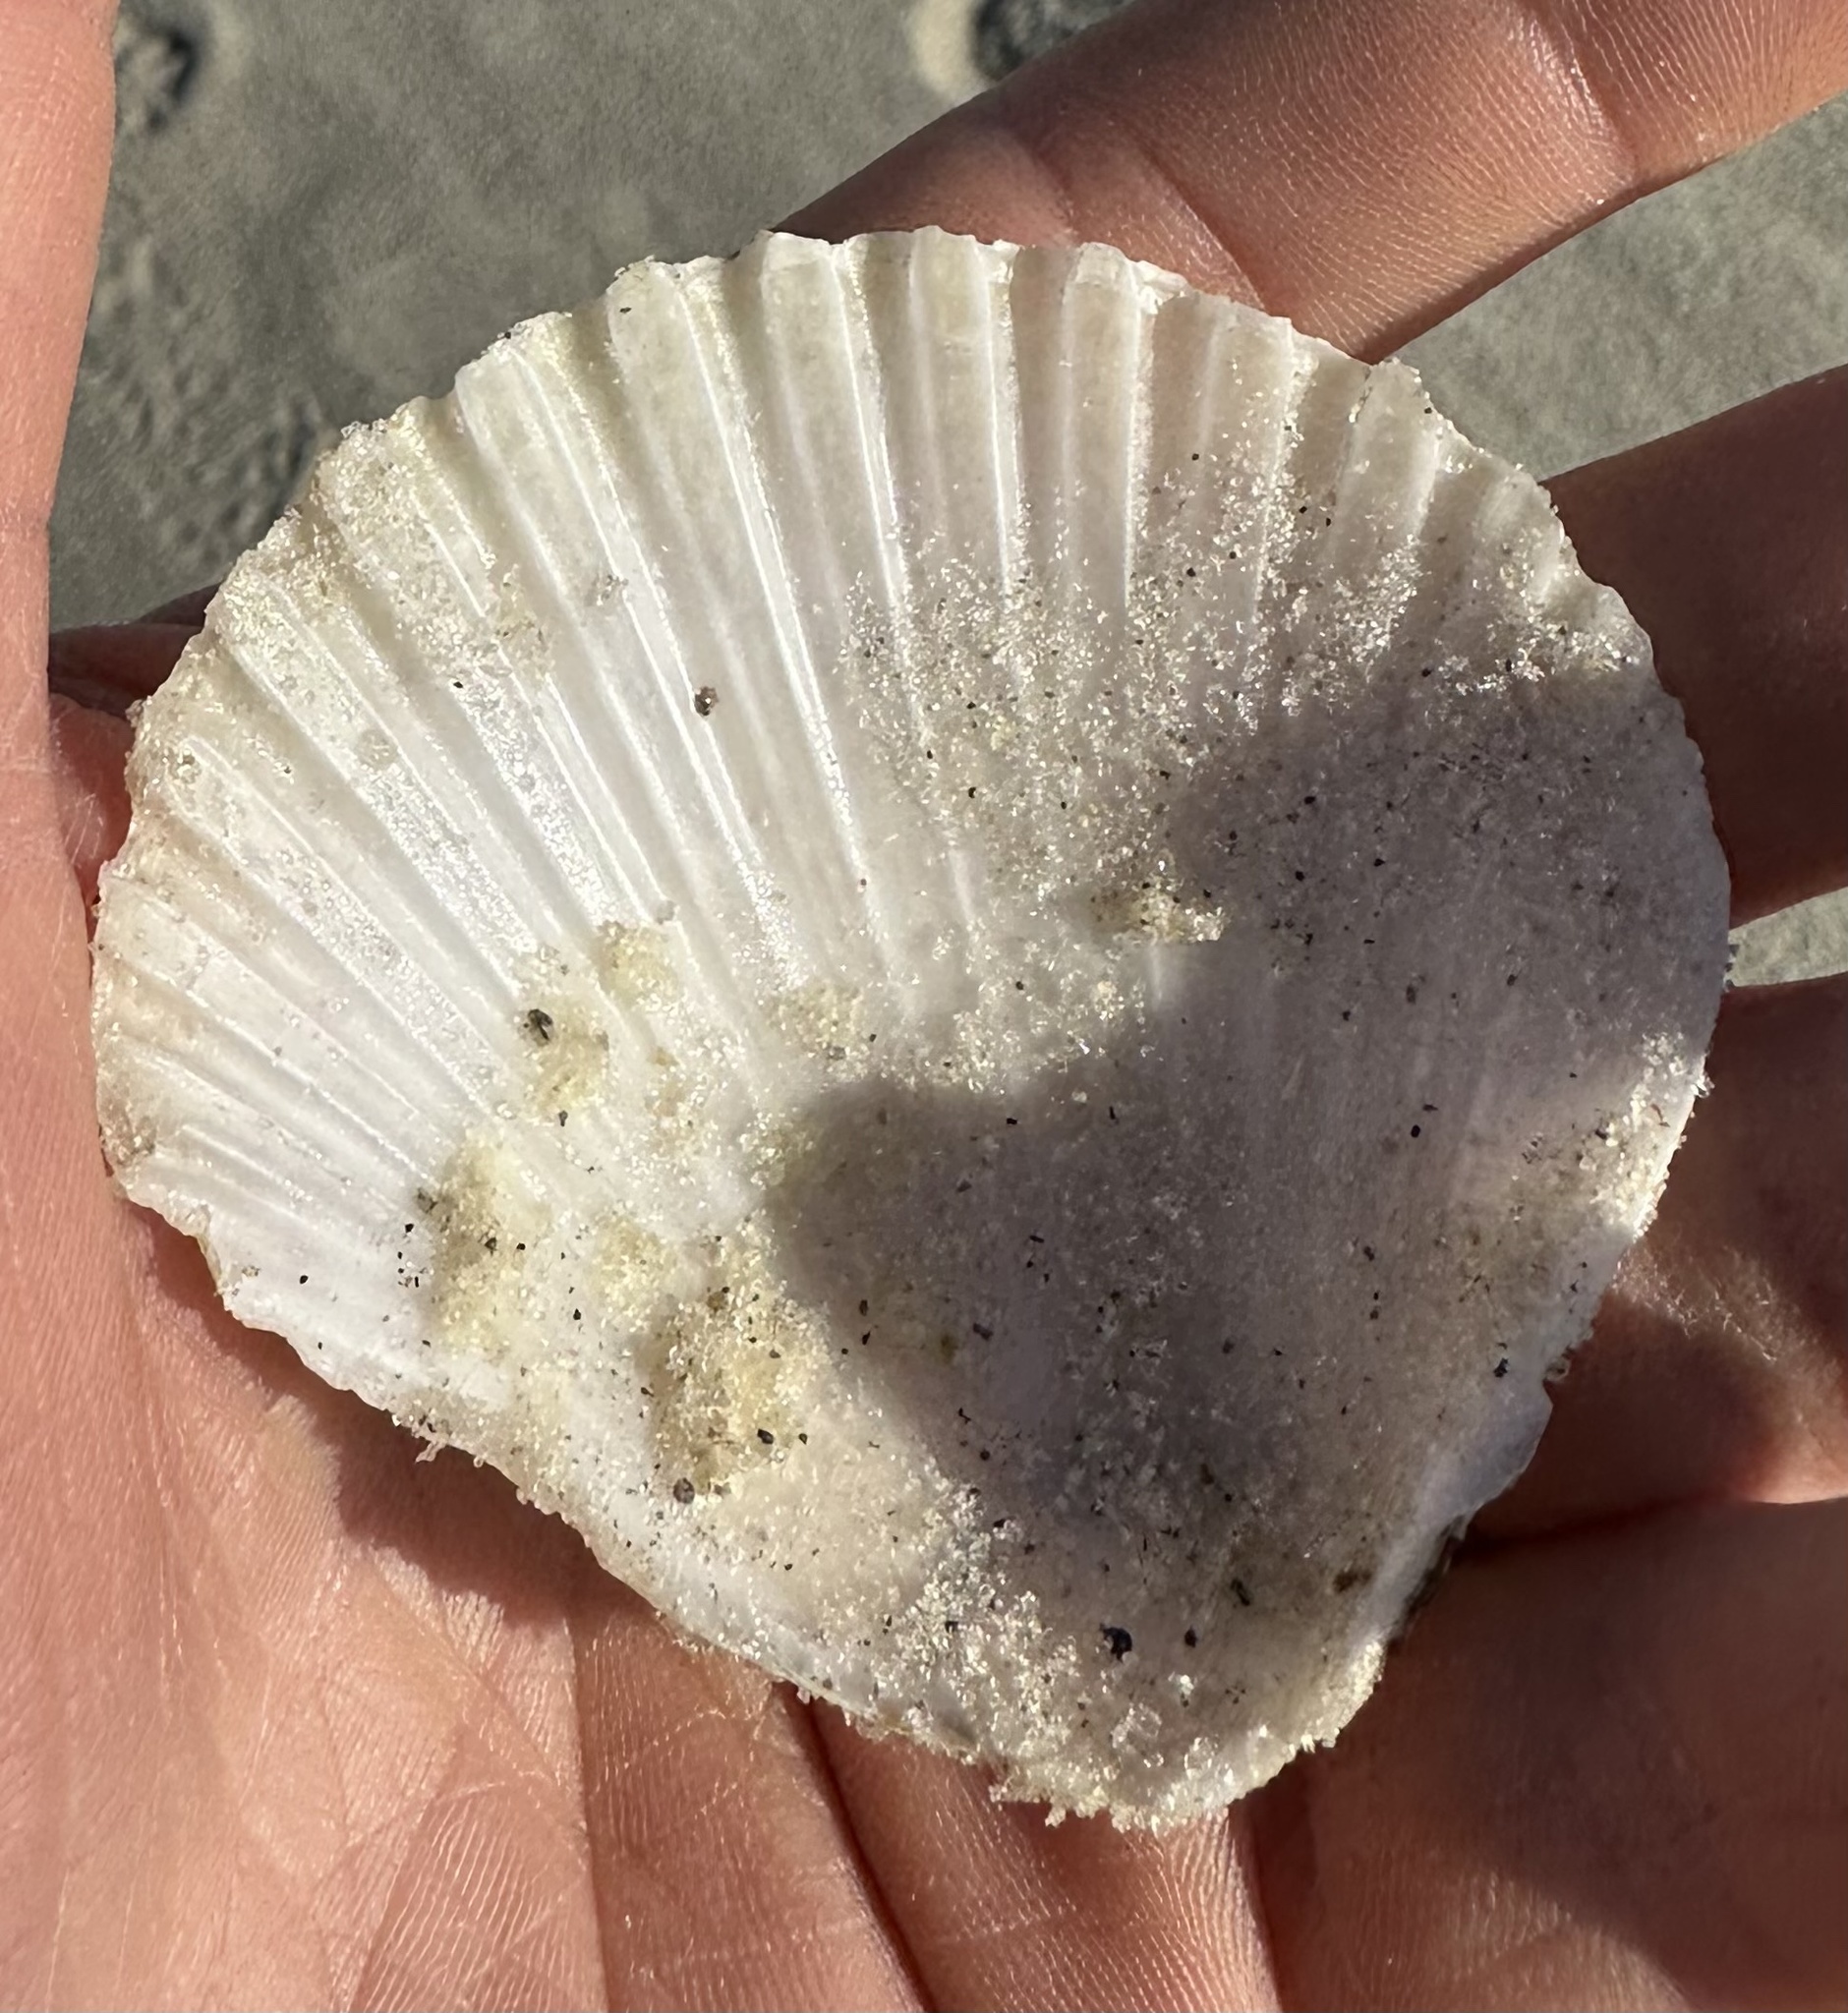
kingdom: Animalia
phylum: Mollusca
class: Bivalvia
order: Pectinida
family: Pectinidae
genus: Argopecten
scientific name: Argopecten irradians
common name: Atlantic bay scallop
